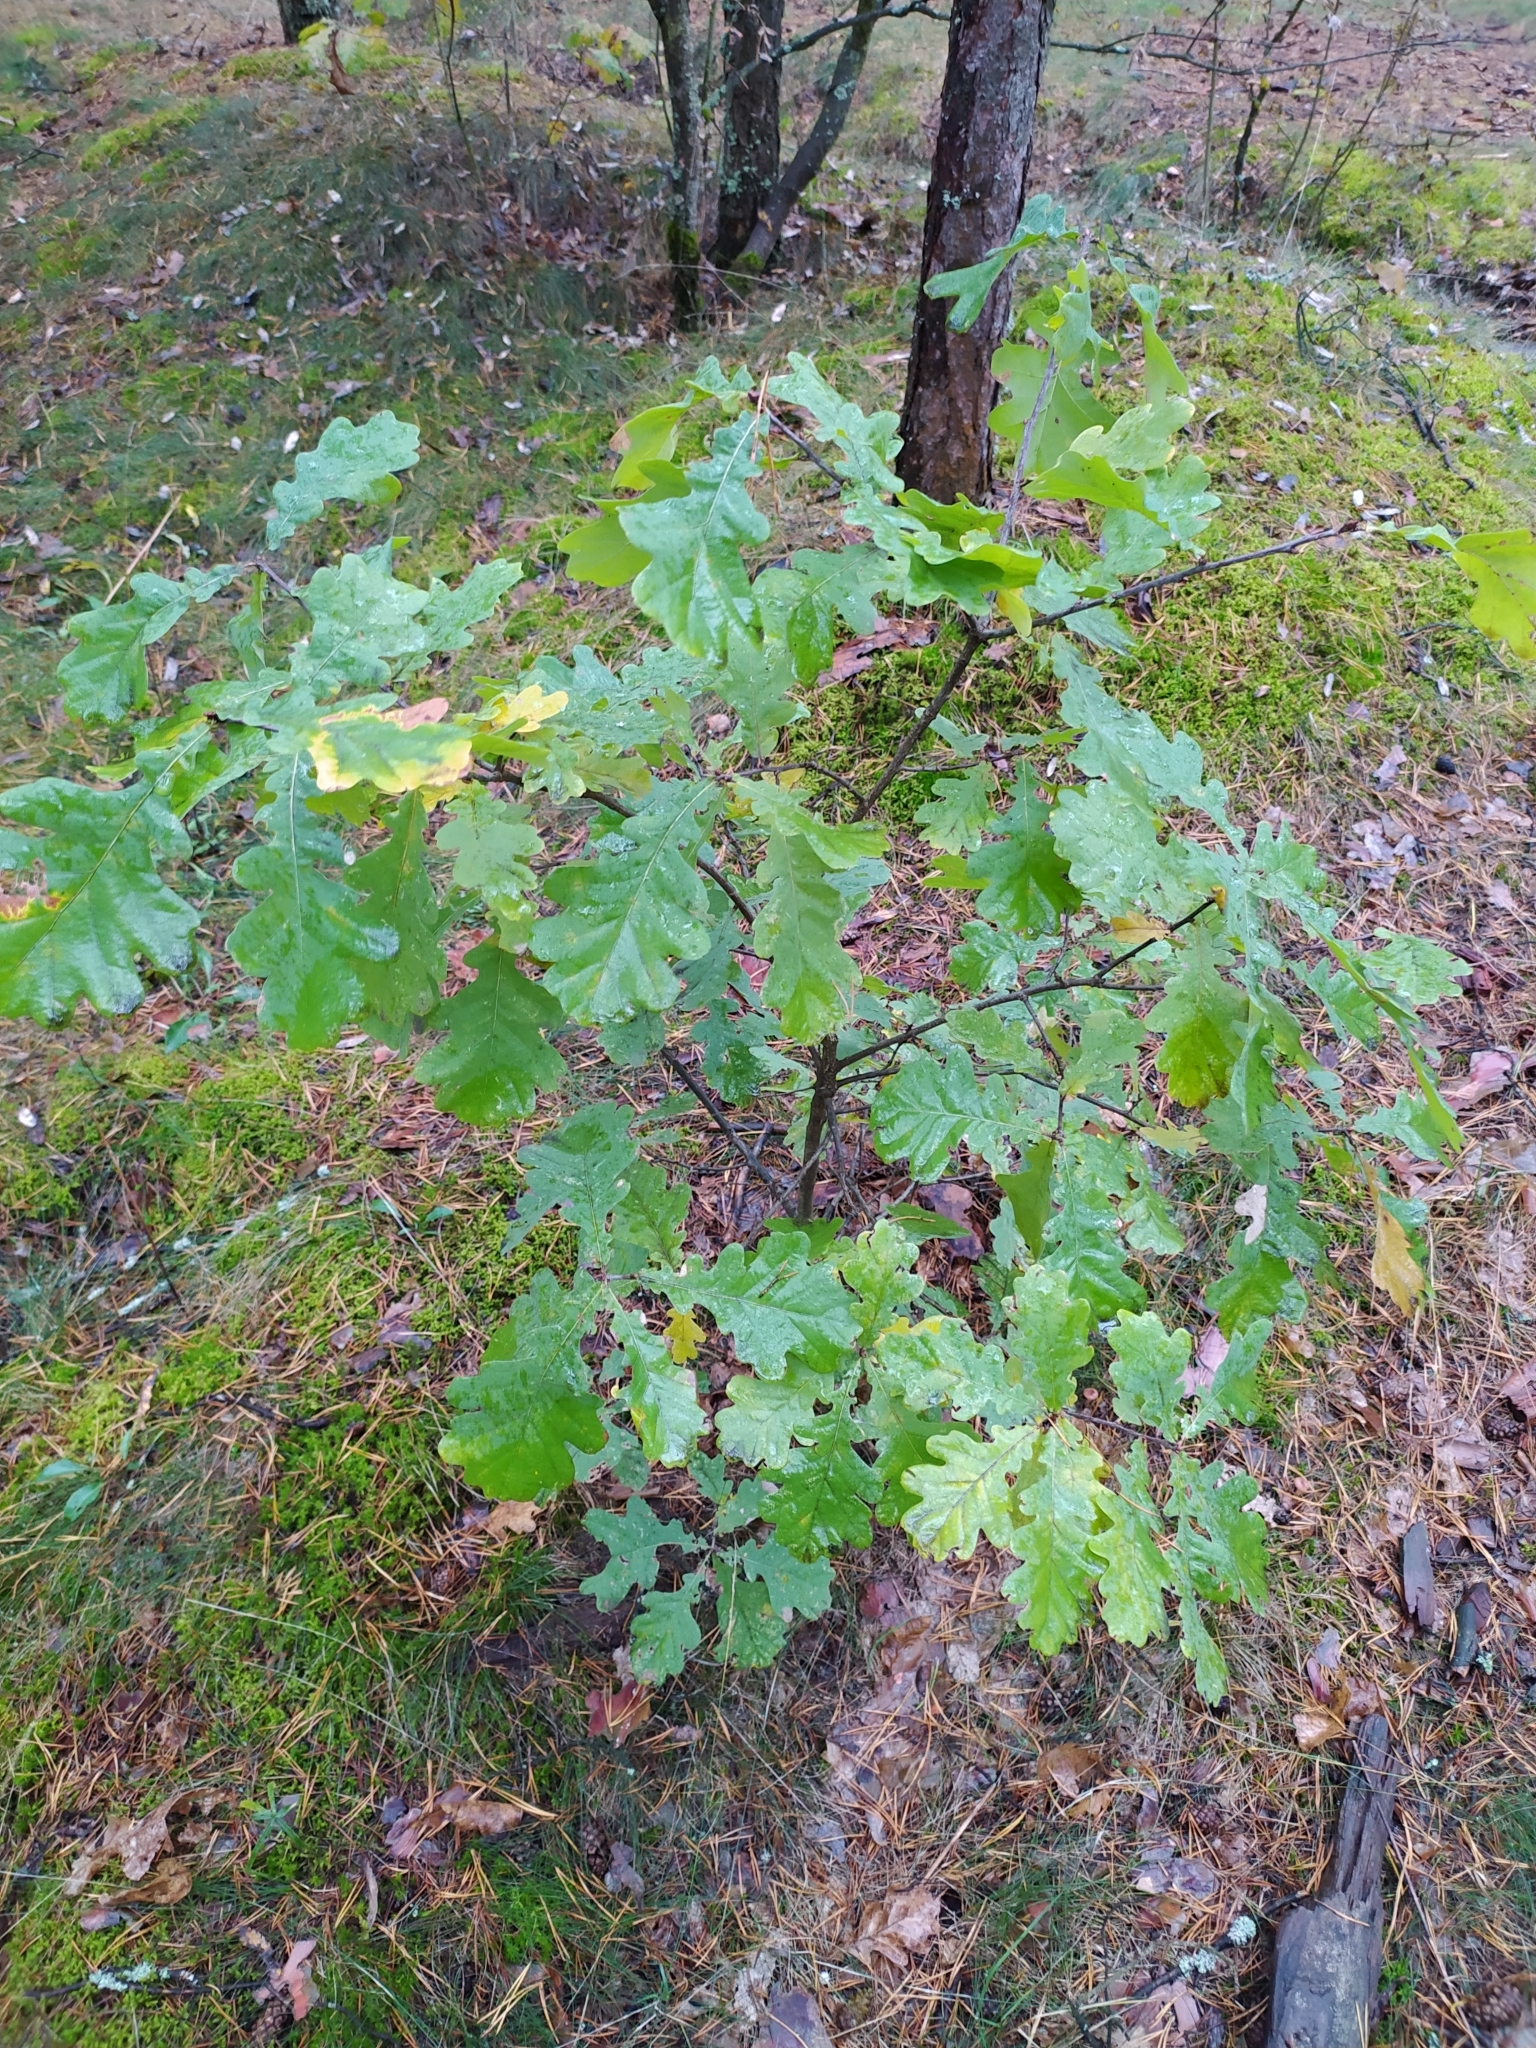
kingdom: Plantae
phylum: Tracheophyta
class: Magnoliopsida
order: Fagales
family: Fagaceae
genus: Quercus
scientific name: Quercus robur
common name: Pedunculate oak
